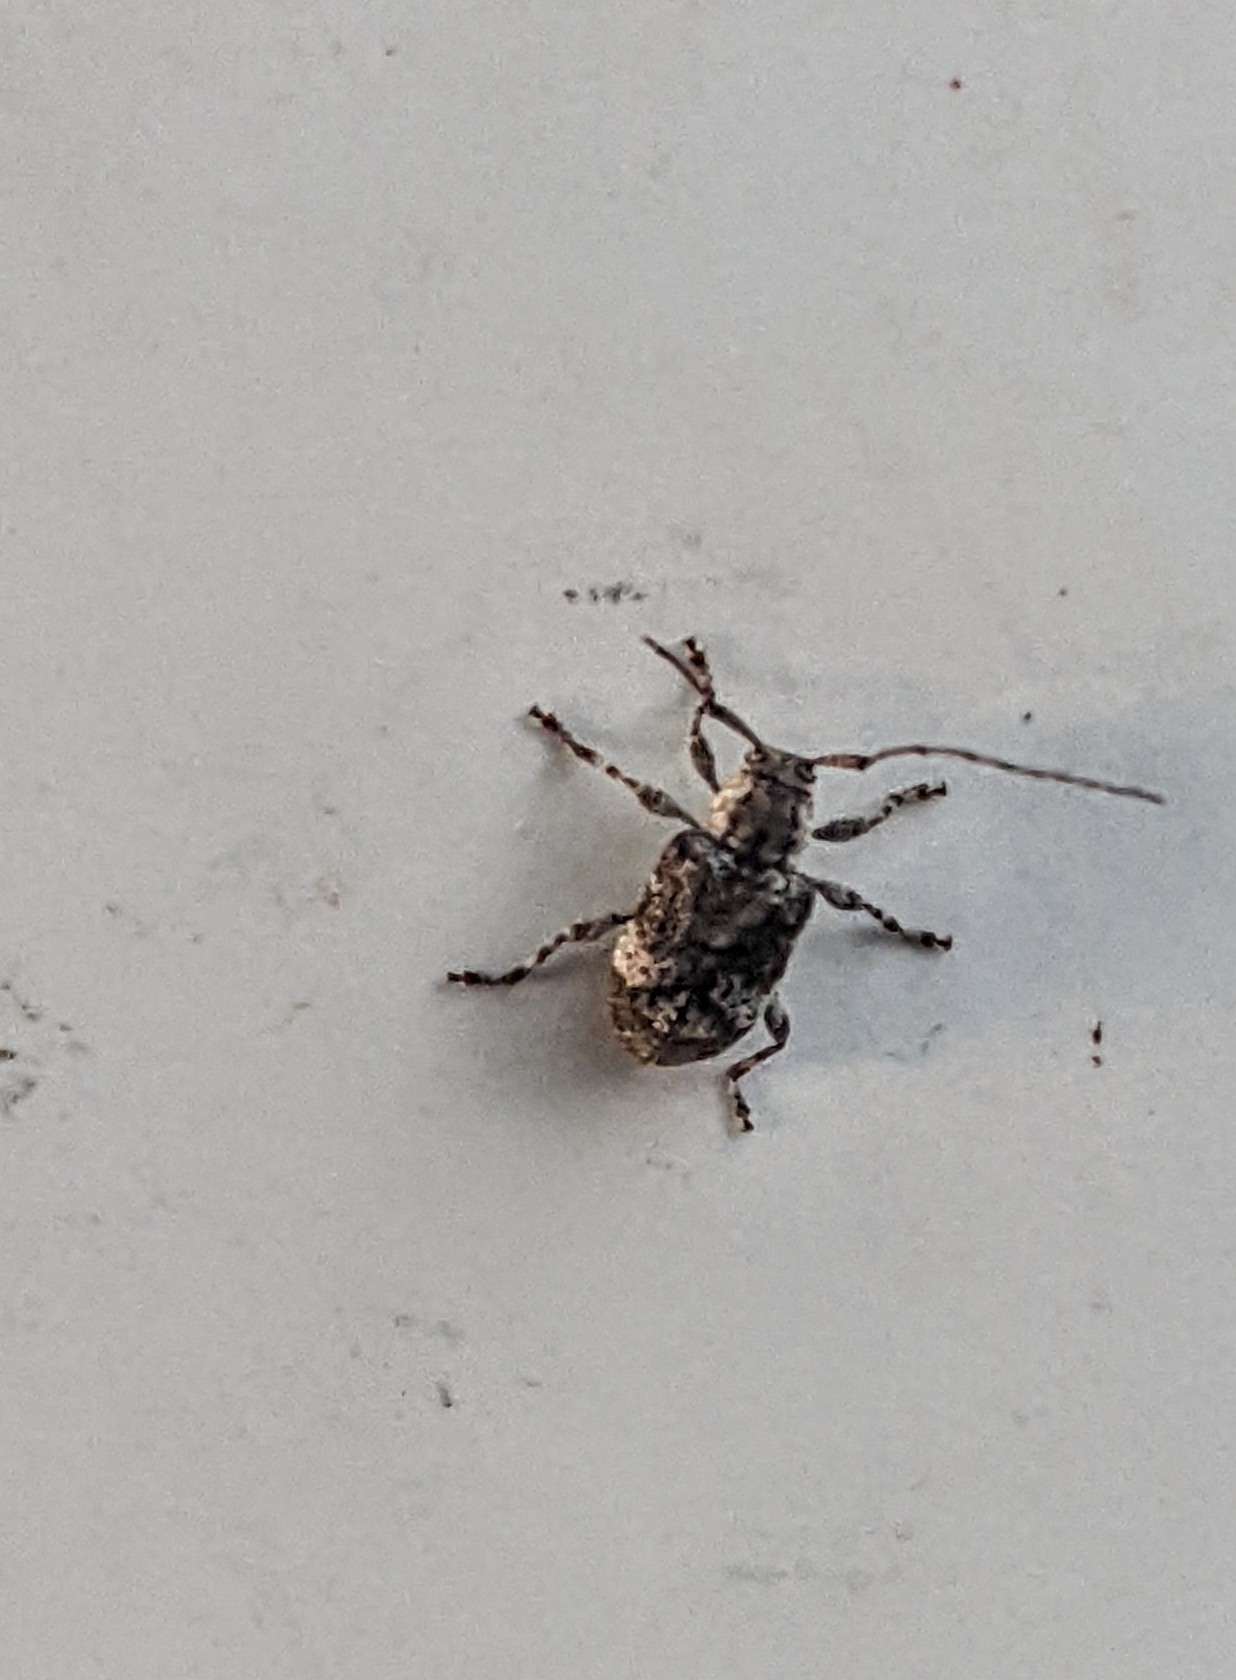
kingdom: Animalia
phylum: Arthropoda
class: Insecta
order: Coleoptera
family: Cerambycidae
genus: Astylopsis
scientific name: Astylopsis macula
